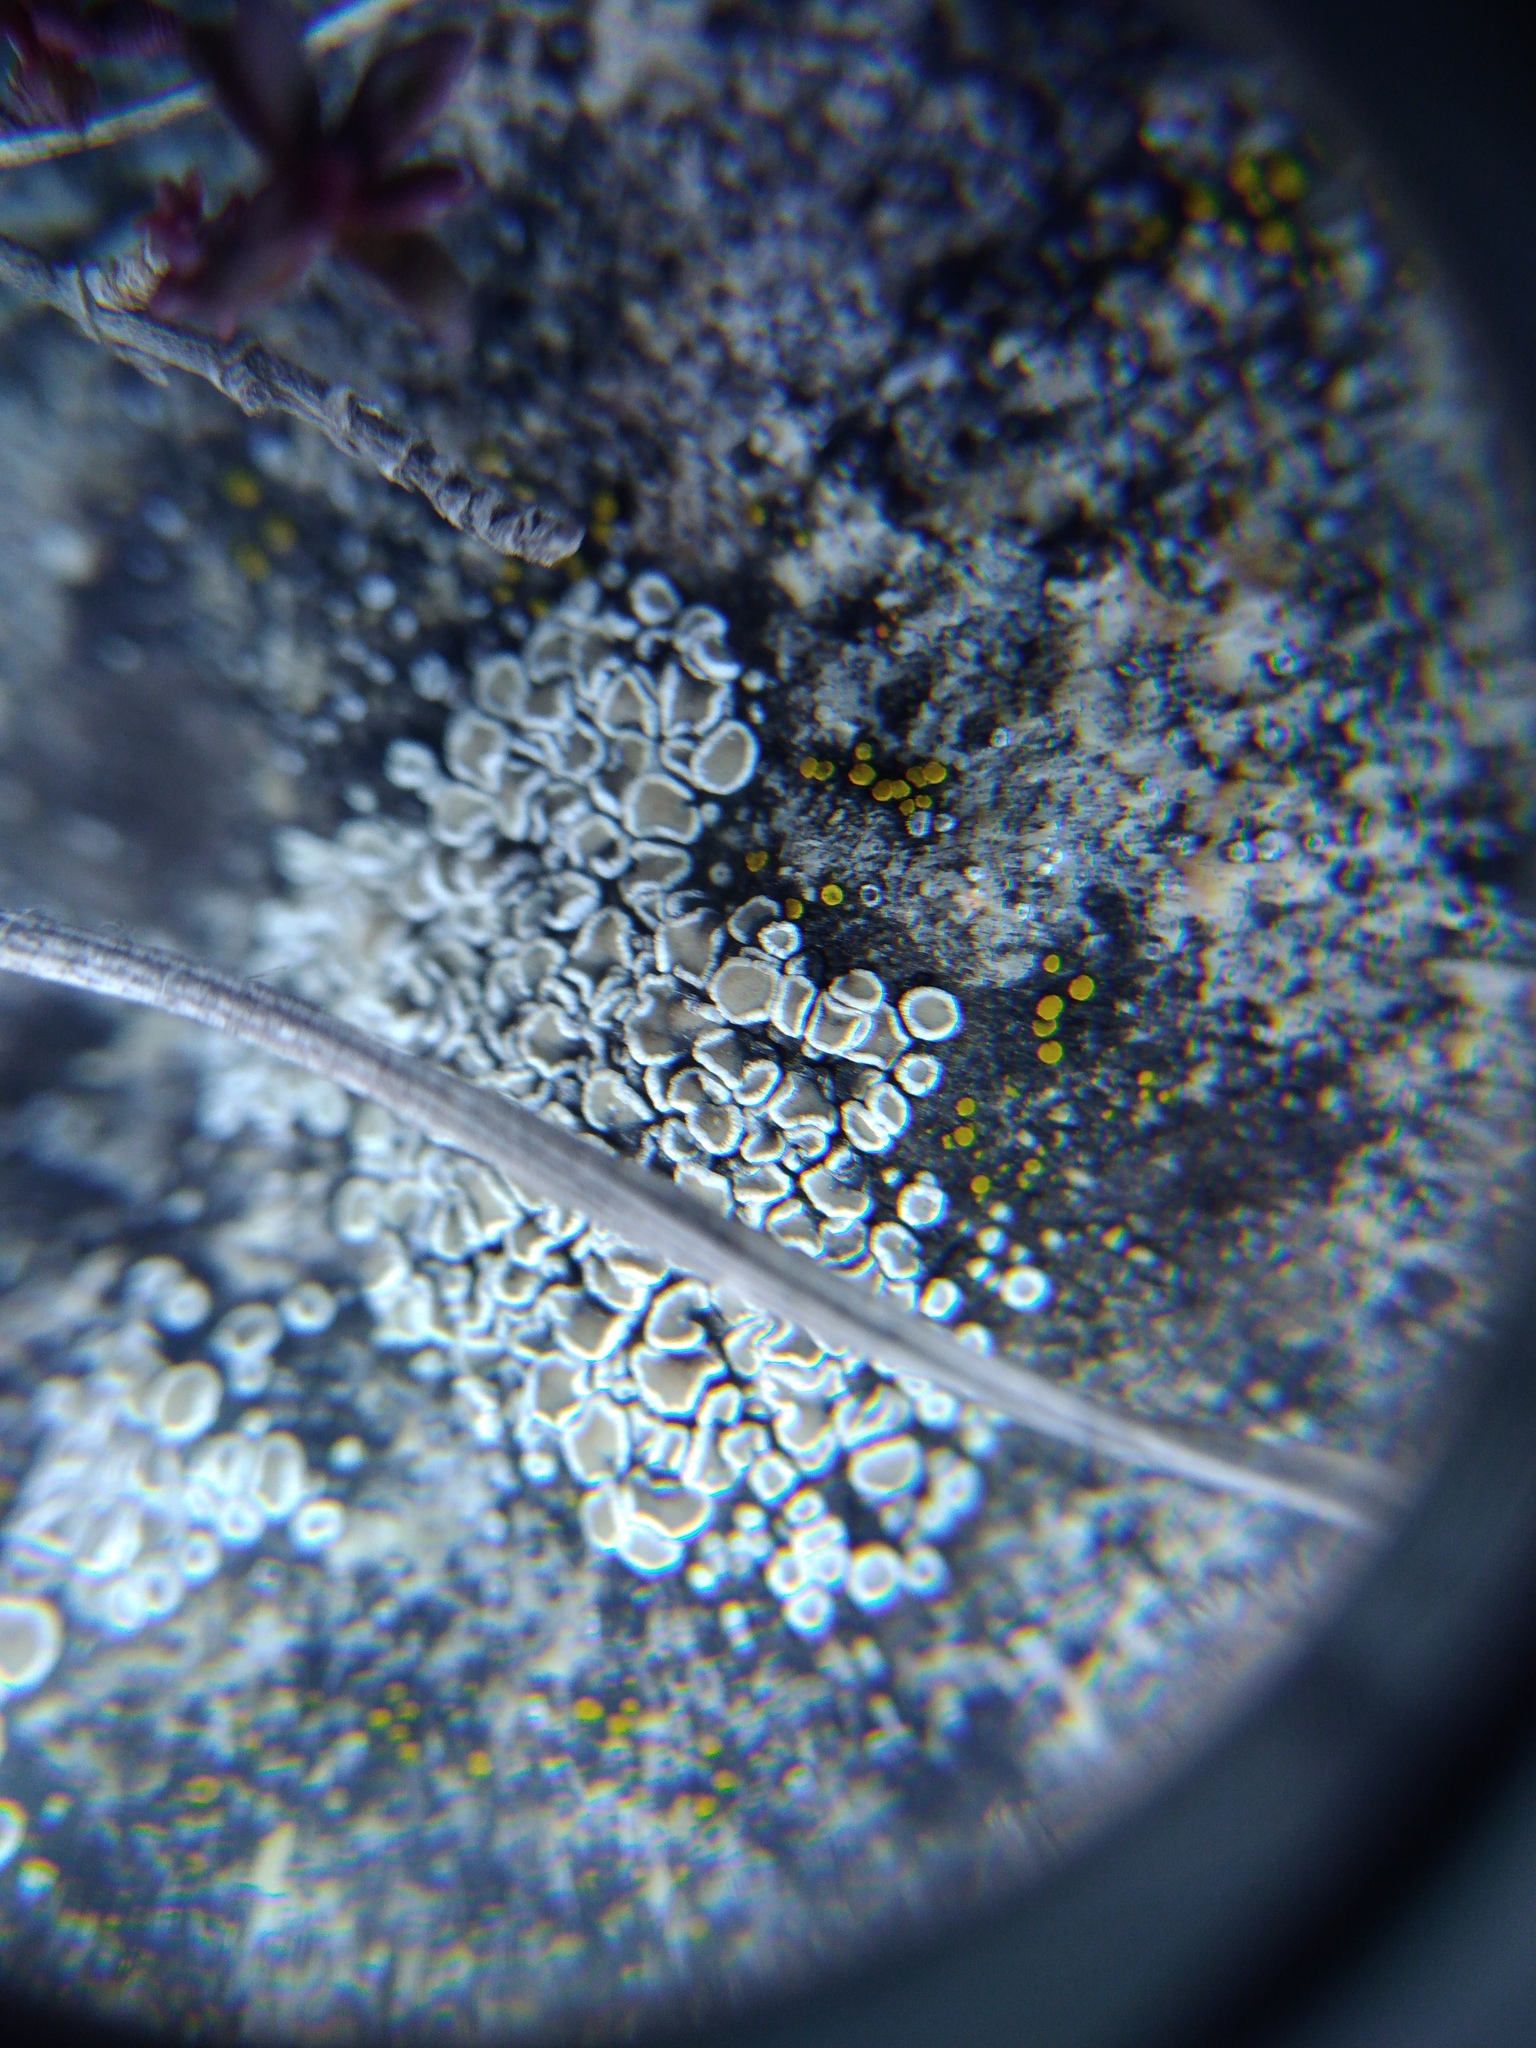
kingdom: Fungi
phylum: Ascomycota
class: Lecanoromycetes
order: Lecanorales
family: Lecanoraceae
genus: Polyozosia
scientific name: Polyozosia semipallida
